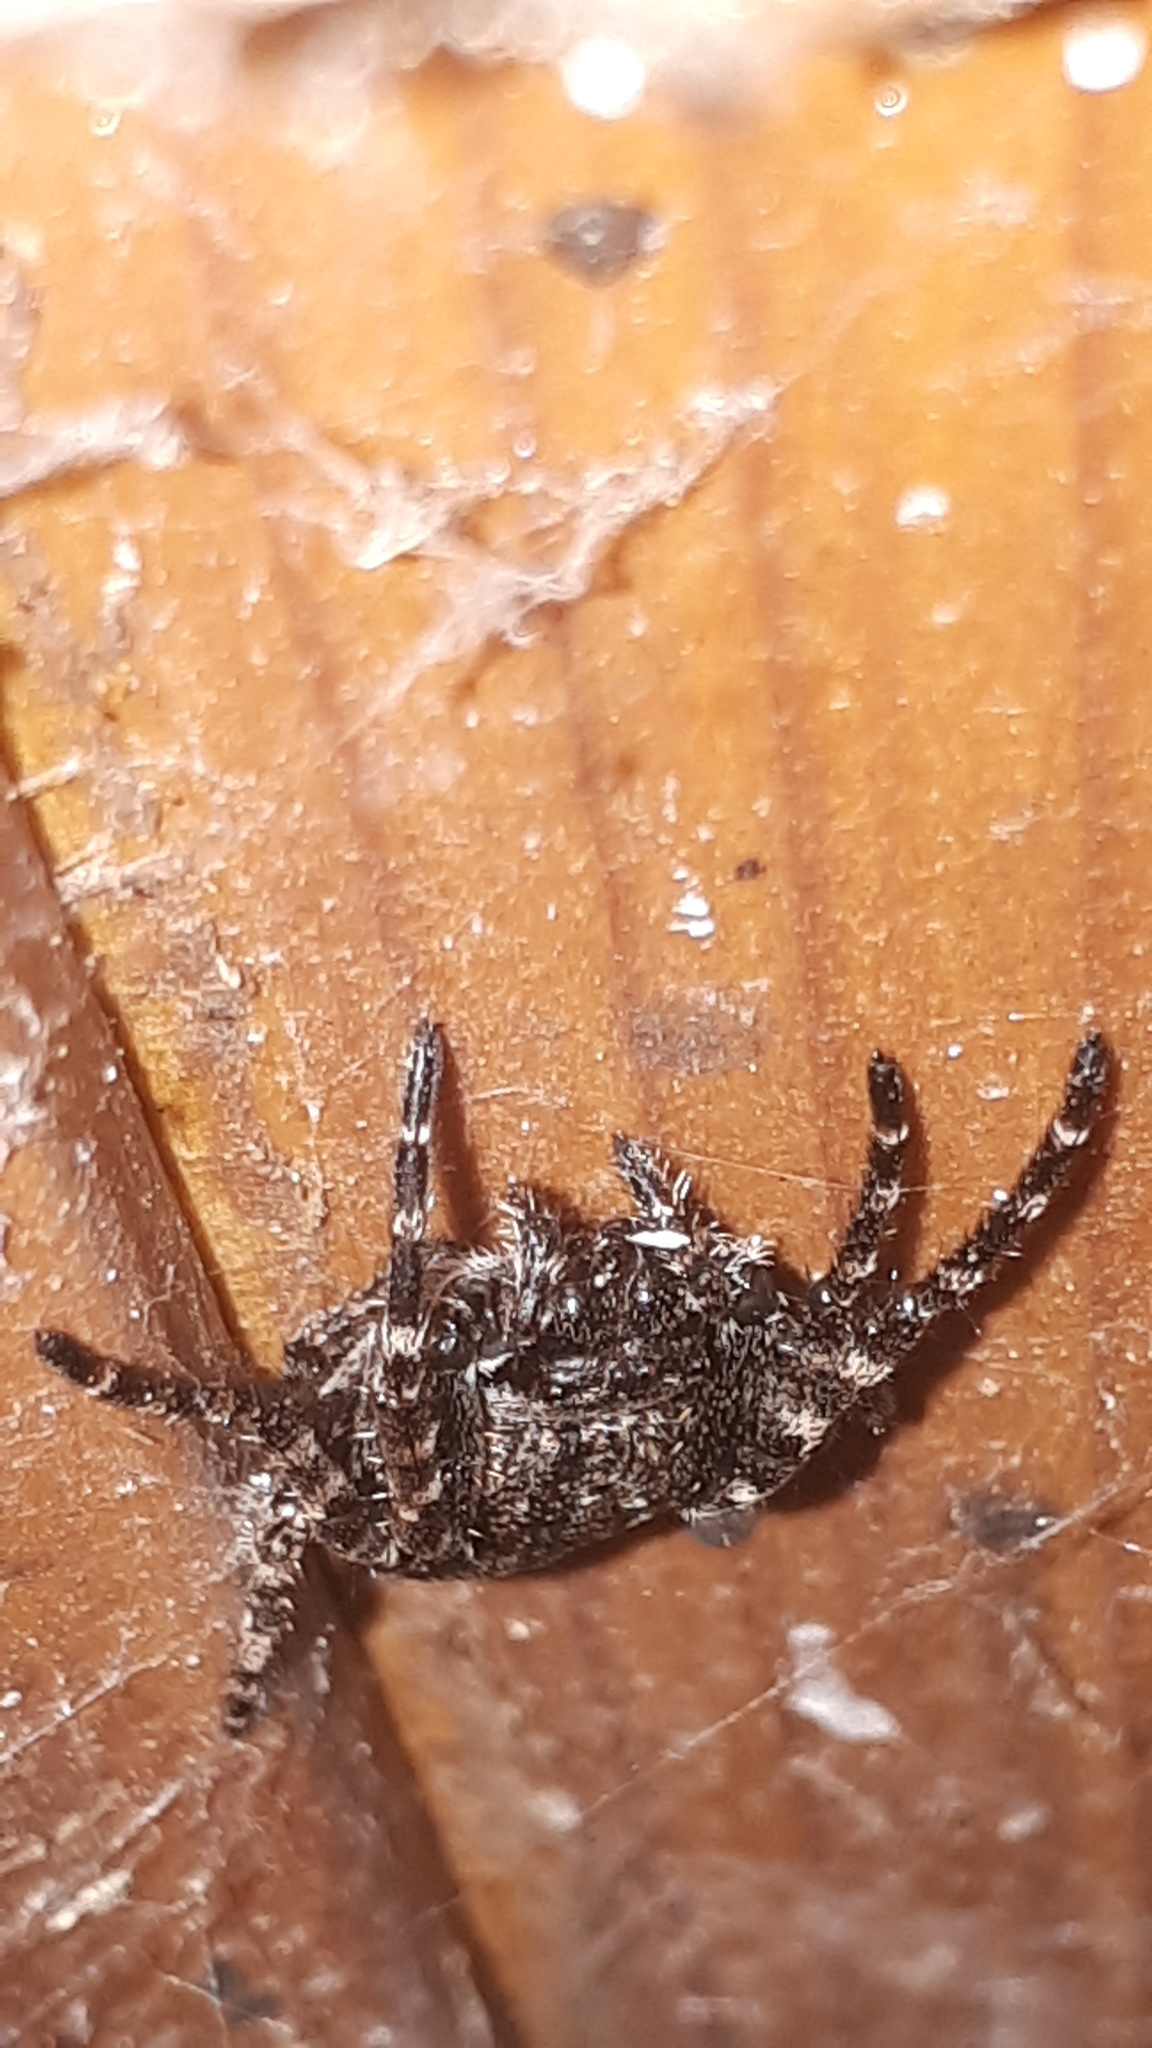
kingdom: Animalia
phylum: Arthropoda
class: Arachnida
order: Araneae
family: Araneidae
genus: Nuctenea
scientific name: Nuctenea umbratica
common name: Toad spider
